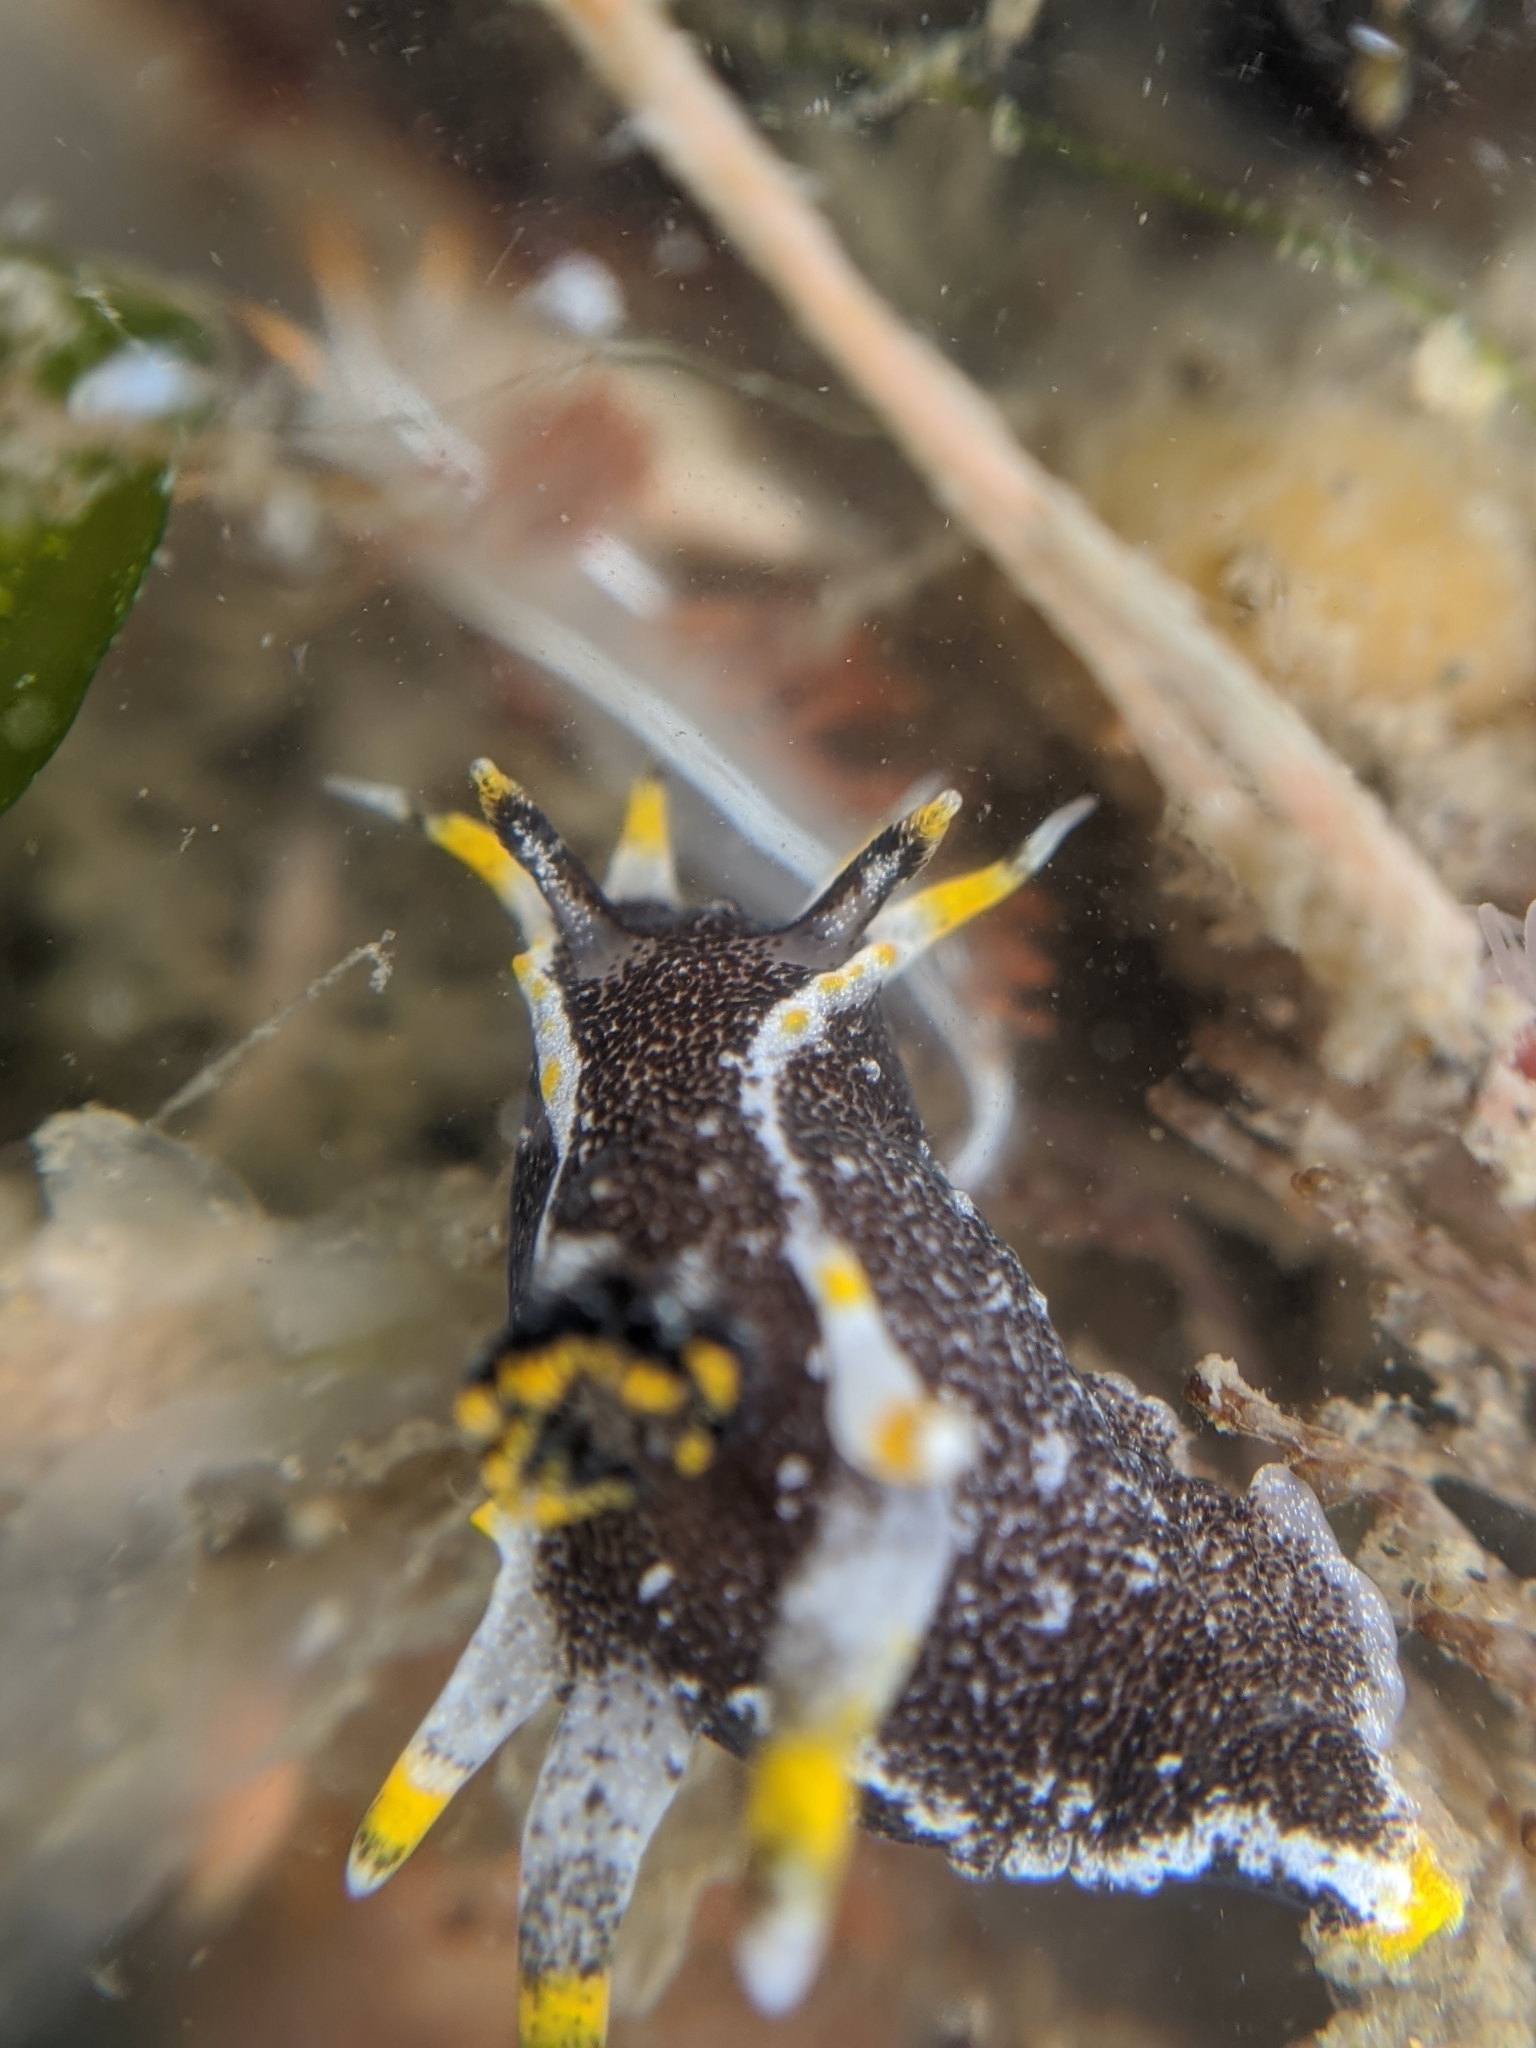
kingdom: Animalia
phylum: Mollusca
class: Gastropoda
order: Nudibranchia
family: Polyceridae
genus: Polycera
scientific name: Polycera hedgpethi
